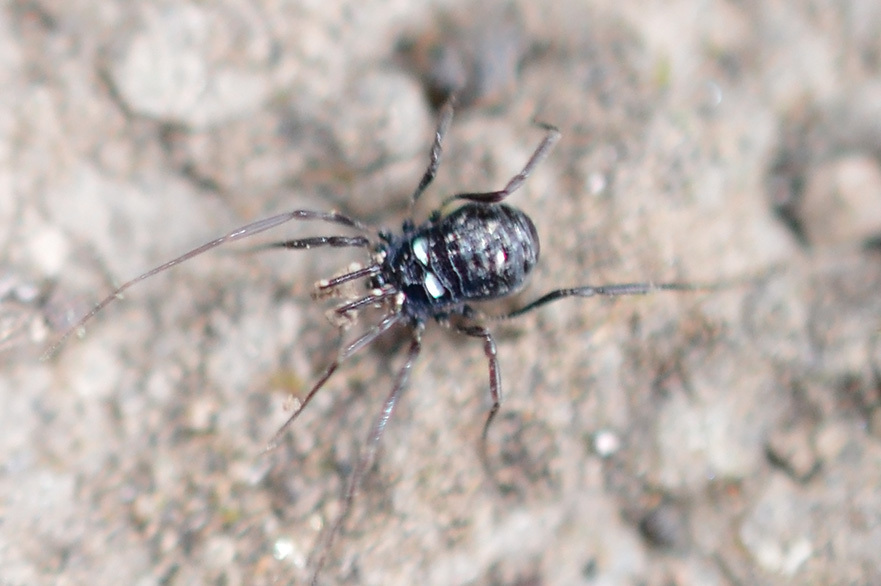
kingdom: Animalia
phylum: Arthropoda
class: Arachnida
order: Opiliones
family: Nemastomatidae
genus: Carinostoma
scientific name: Carinostoma ornatum
